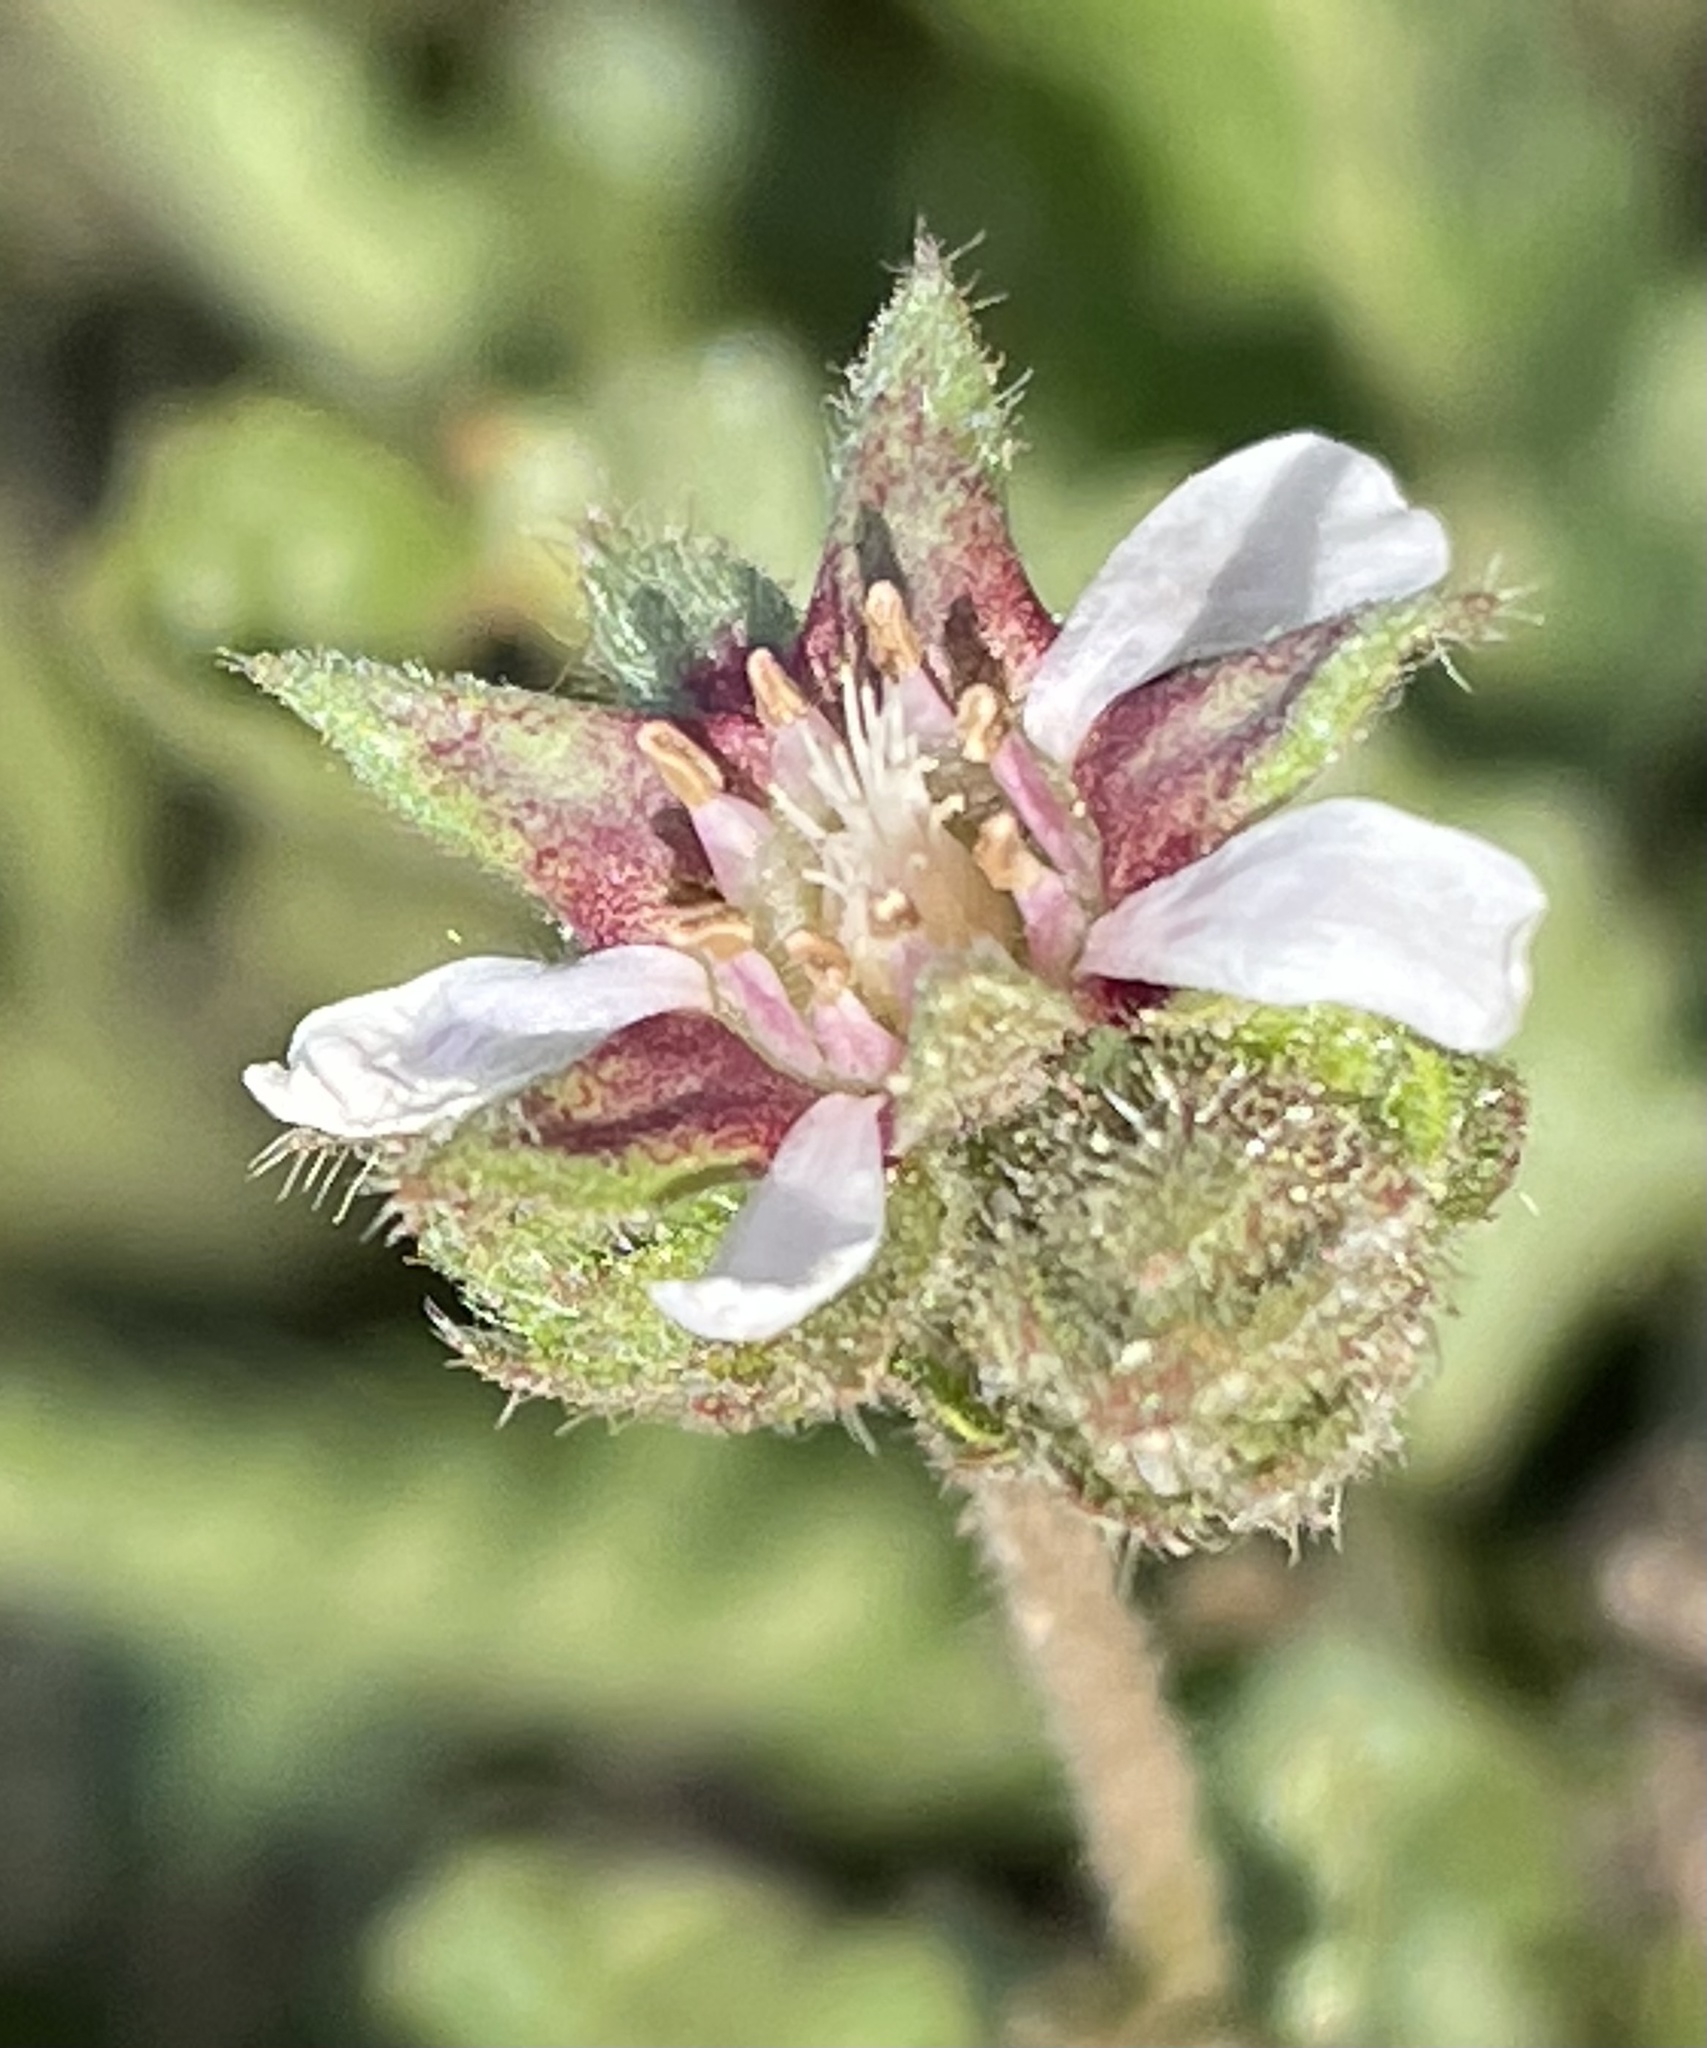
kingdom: Plantae
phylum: Tracheophyta
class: Magnoliopsida
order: Rosales
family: Rosaceae
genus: Potentilla
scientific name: Potentilla
